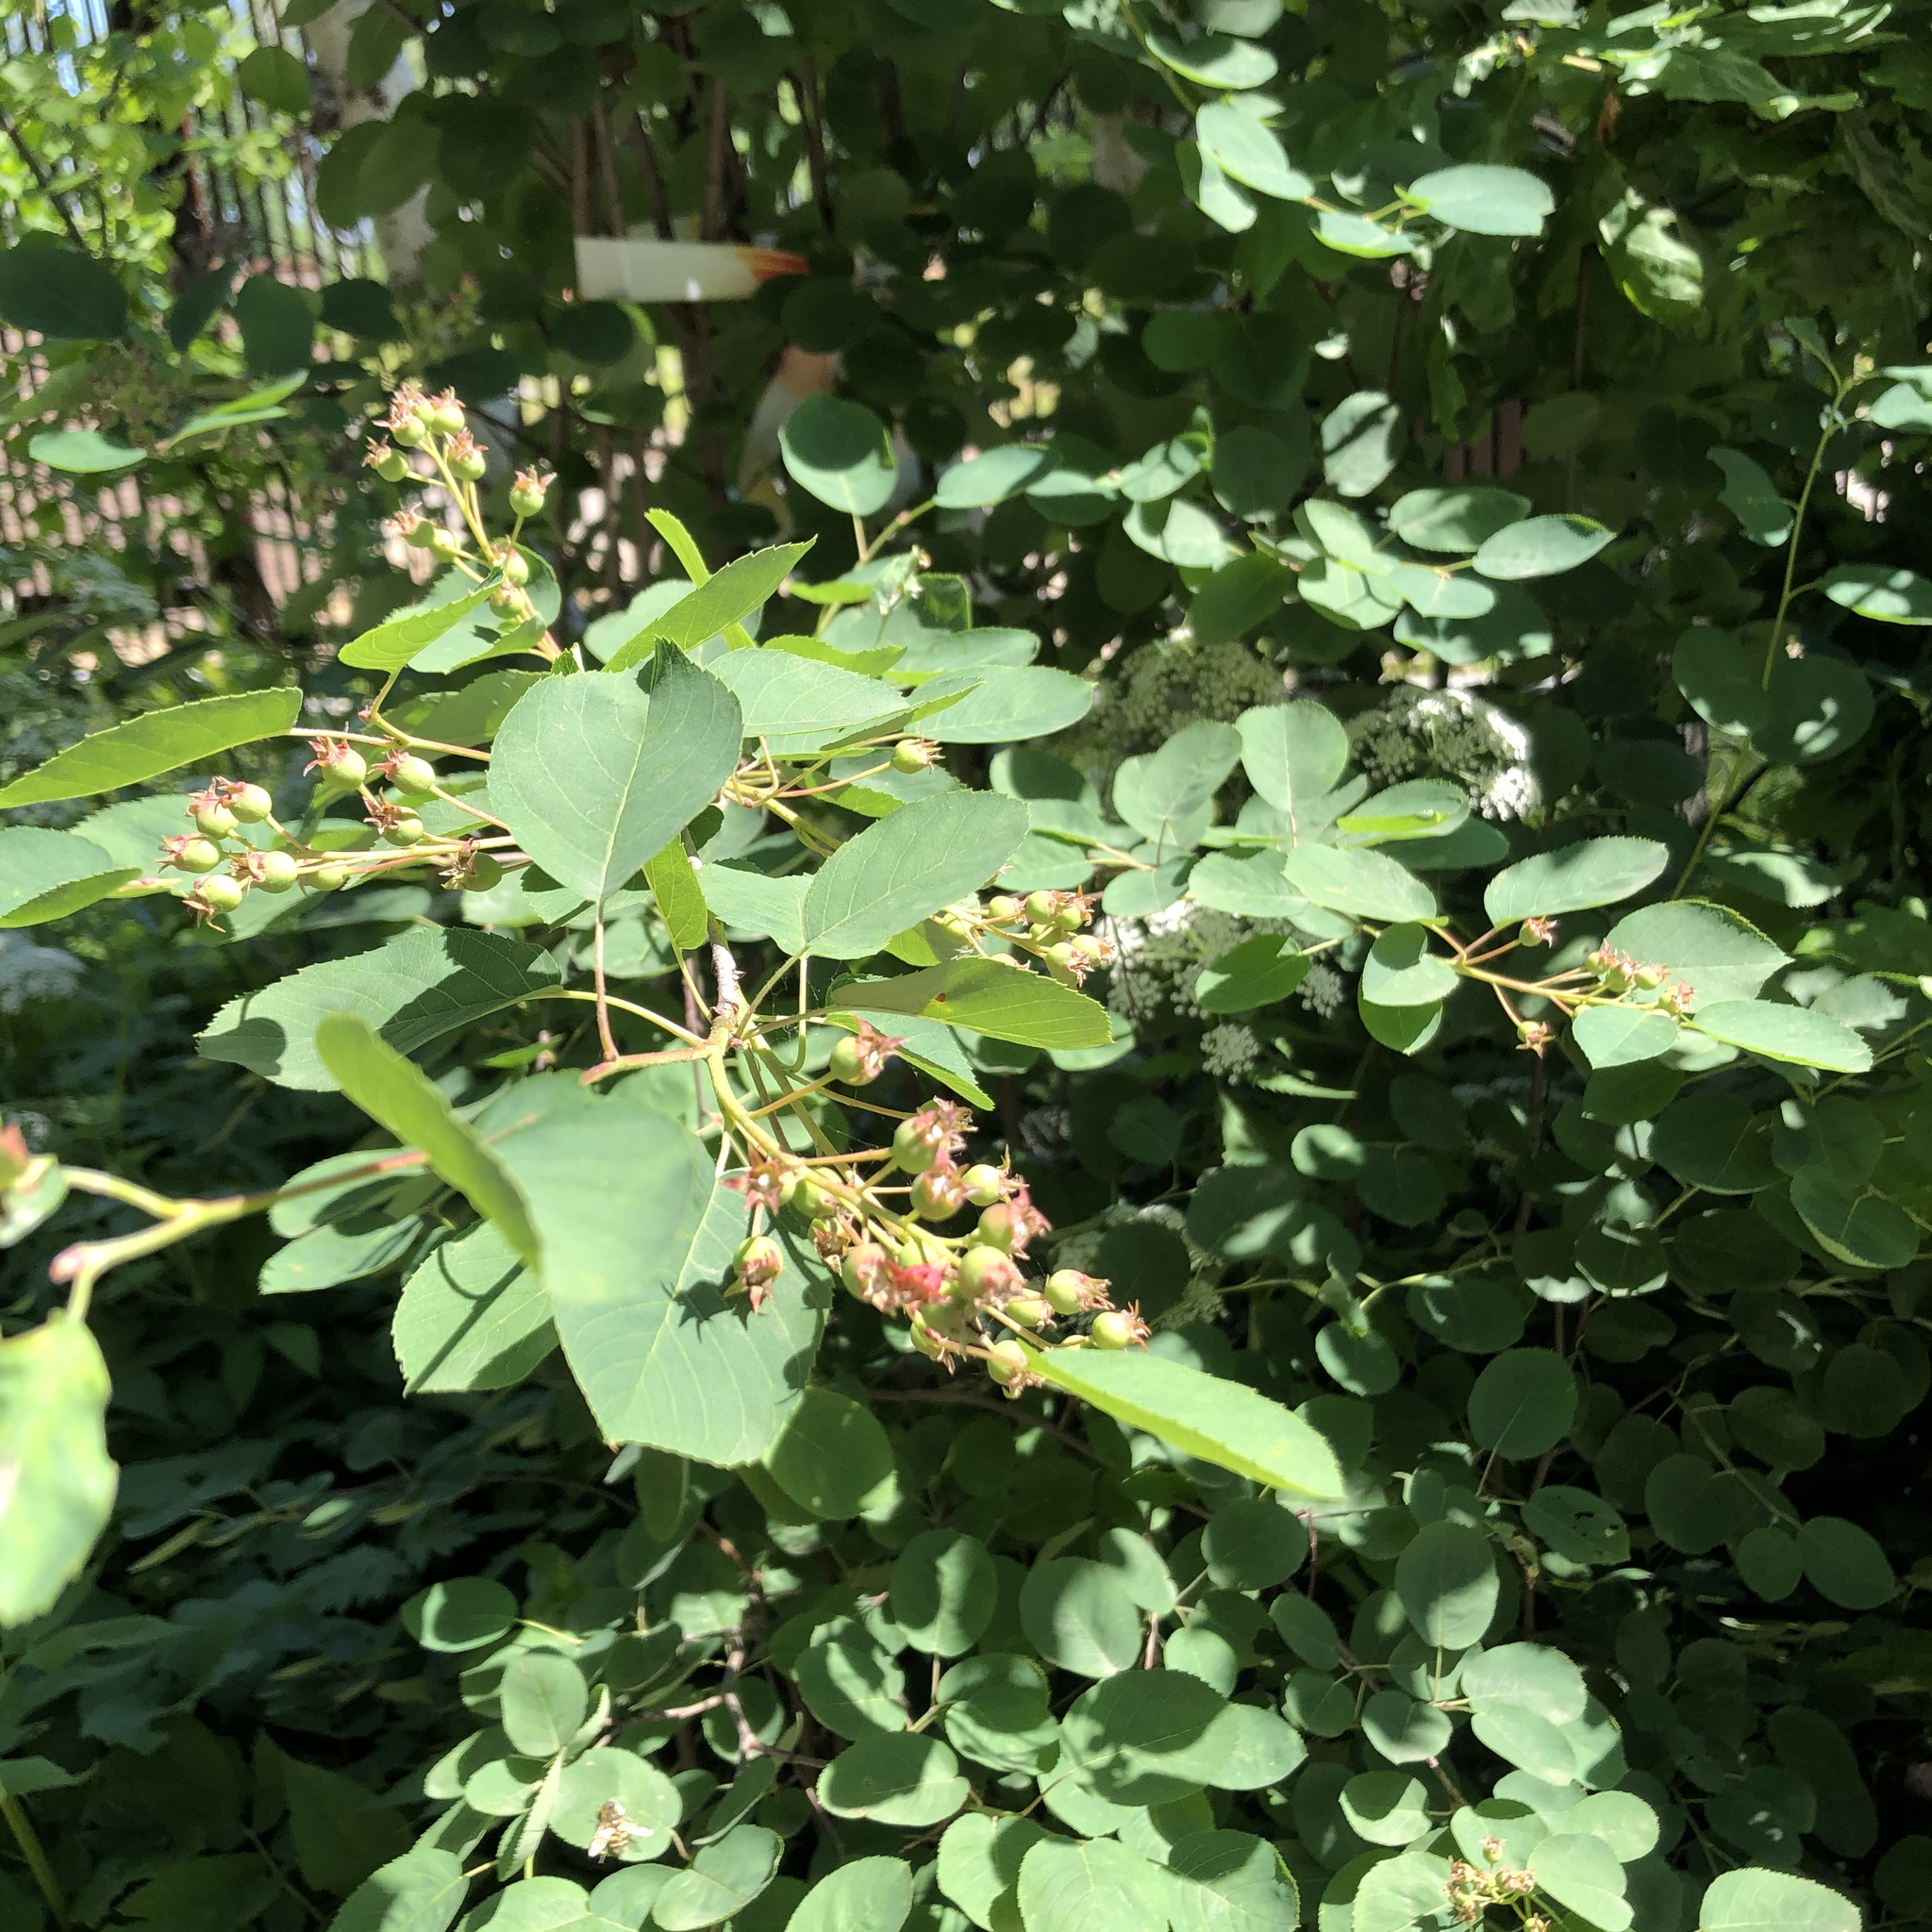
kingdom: Plantae
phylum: Tracheophyta
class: Magnoliopsida
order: Rosales
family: Rosaceae
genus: Amelanchier
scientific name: Amelanchier
